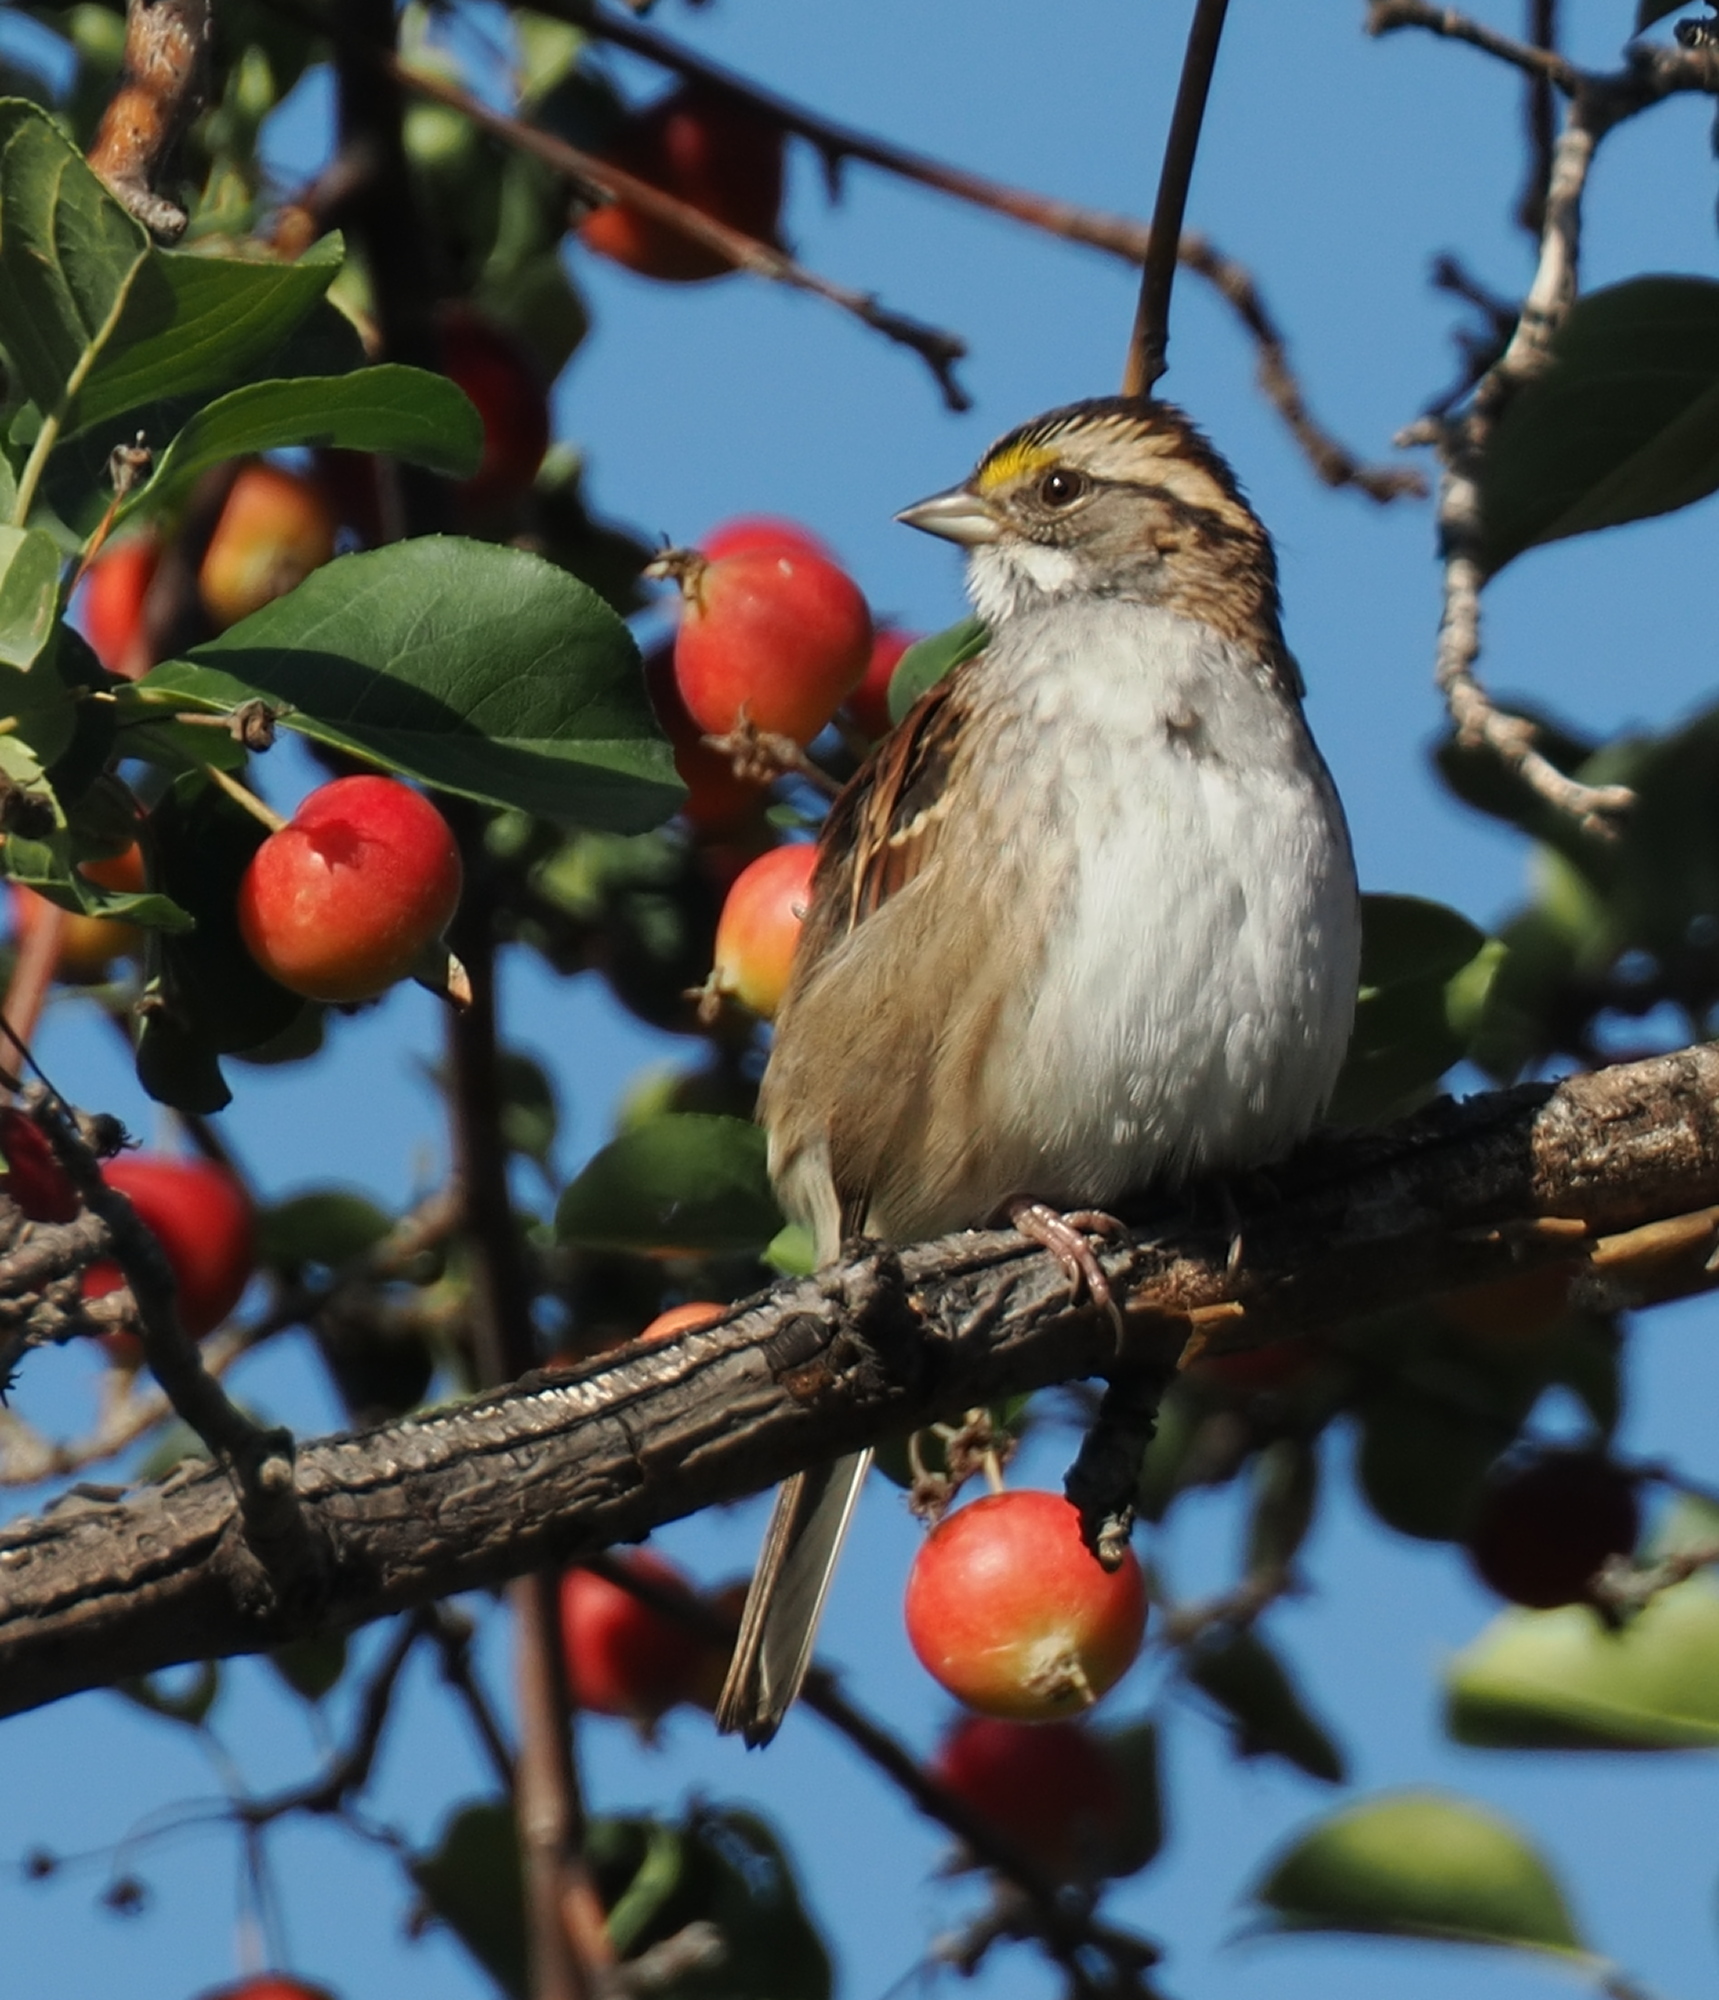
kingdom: Animalia
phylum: Chordata
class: Aves
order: Passeriformes
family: Passerellidae
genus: Zonotrichia
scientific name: Zonotrichia albicollis
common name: White-throated sparrow
